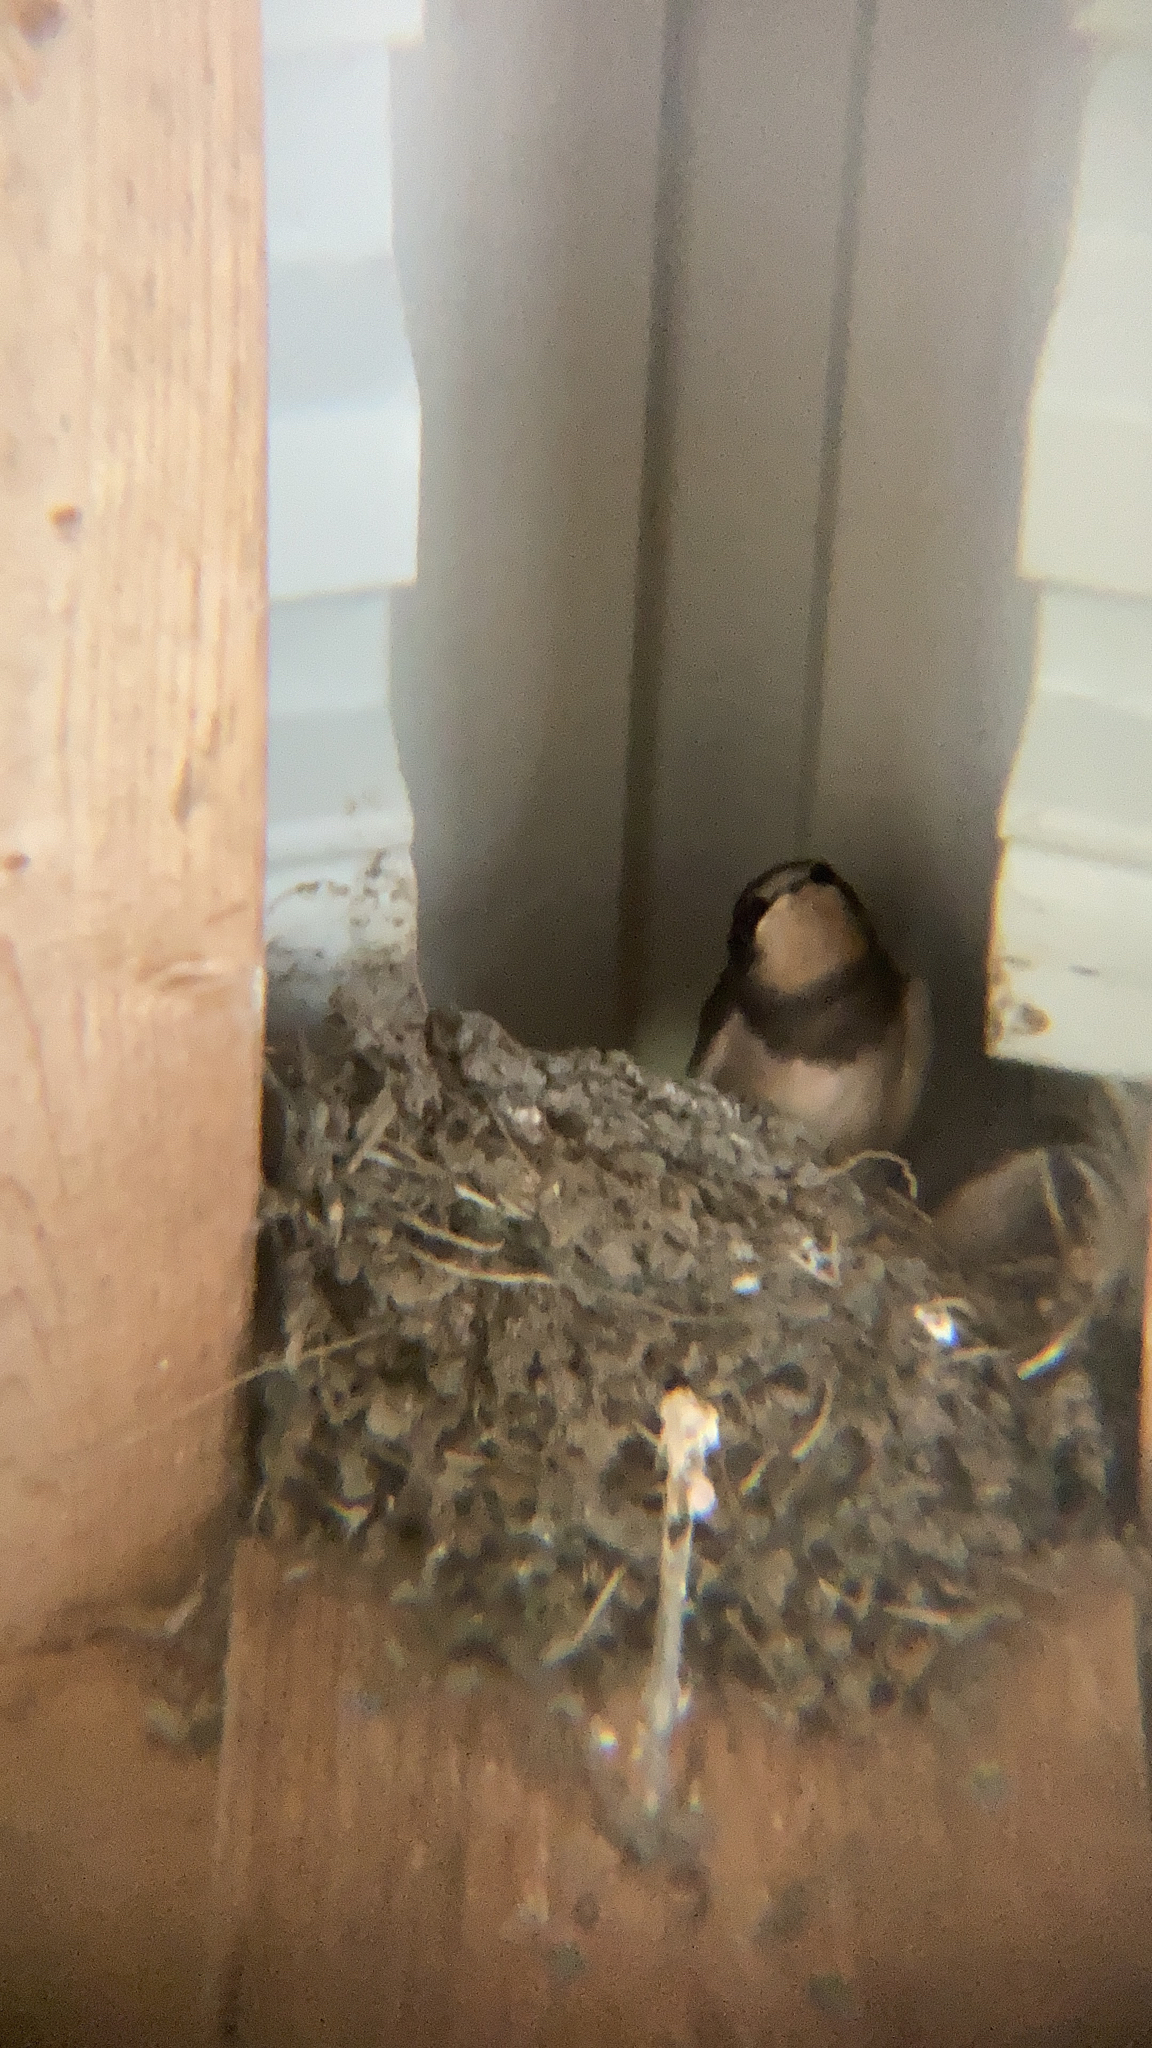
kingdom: Animalia
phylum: Chordata
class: Aves
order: Passeriformes
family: Hirundinidae
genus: Hirundo
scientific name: Hirundo rustica
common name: Barn swallow
